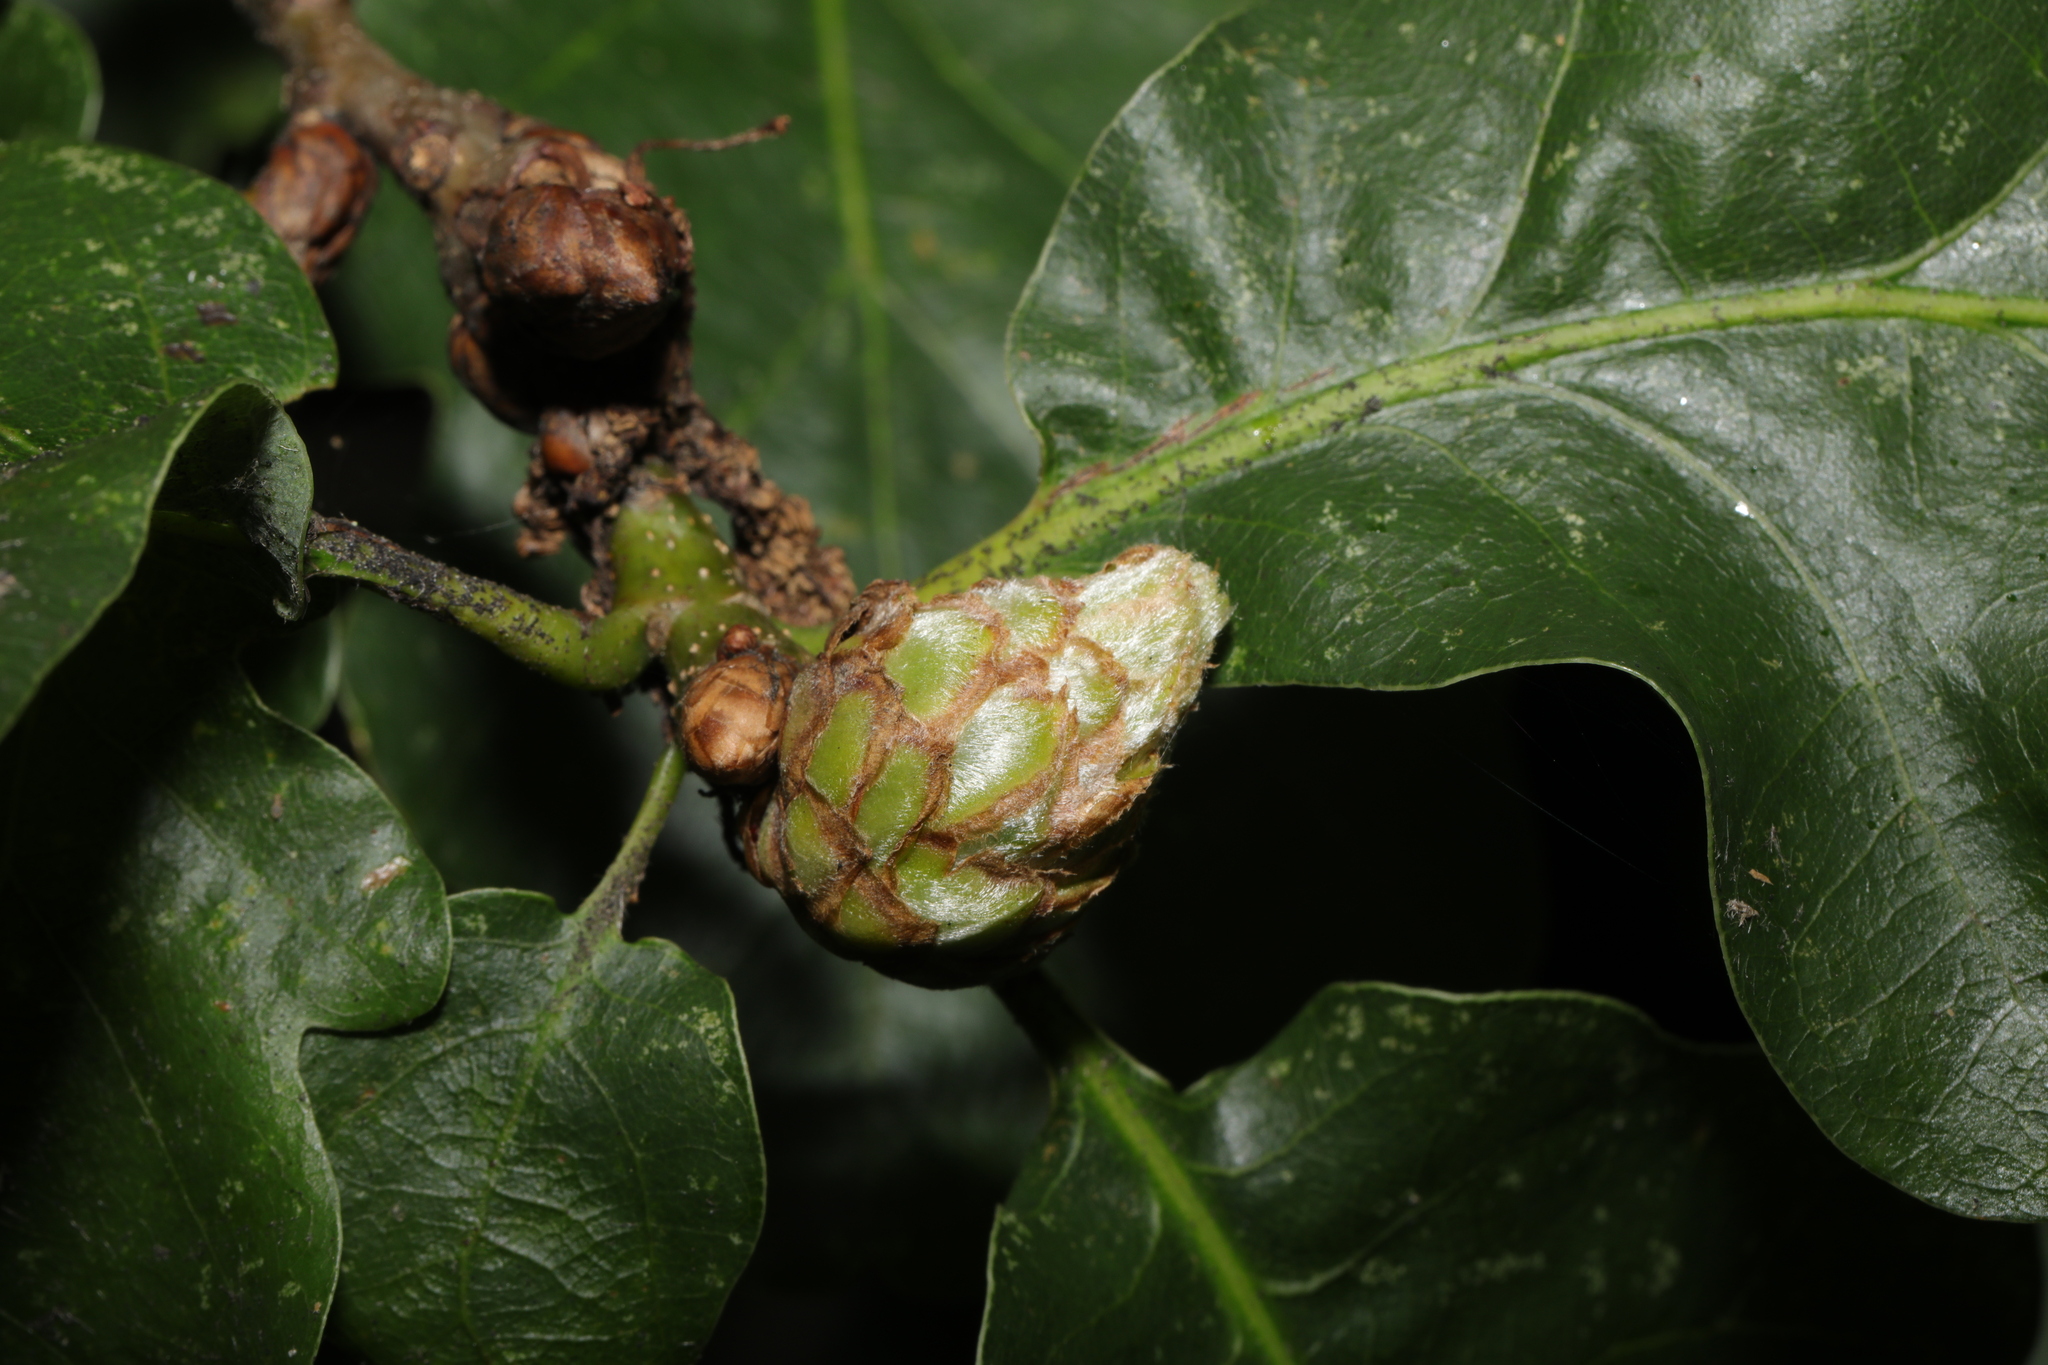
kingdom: Animalia
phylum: Arthropoda
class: Insecta
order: Hymenoptera
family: Cynipidae
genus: Andricus
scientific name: Andricus foecundatrix
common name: Artichoke gall
